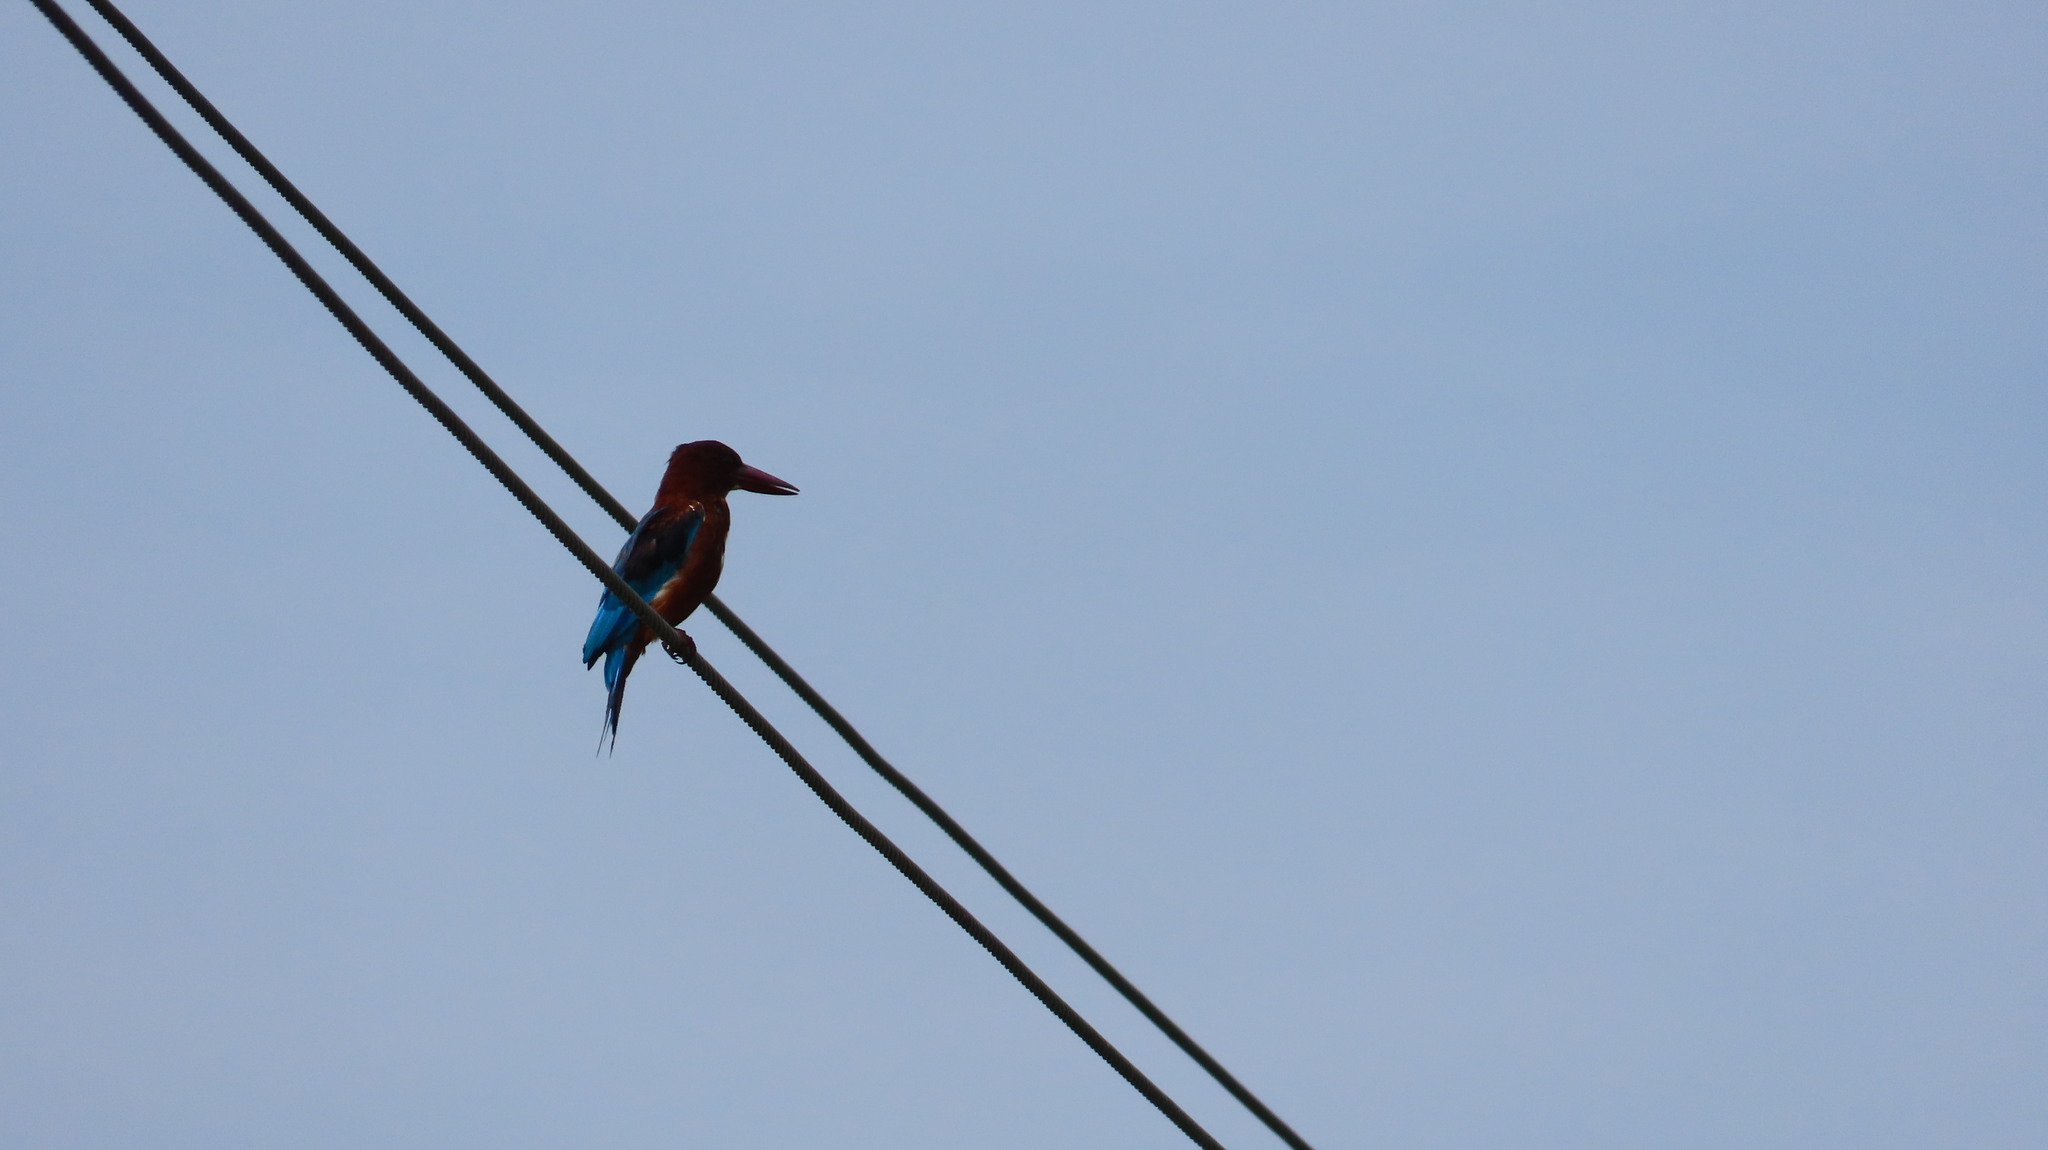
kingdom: Animalia
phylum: Chordata
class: Aves
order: Coraciiformes
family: Alcedinidae
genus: Halcyon
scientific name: Halcyon smyrnensis
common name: White-throated kingfisher
